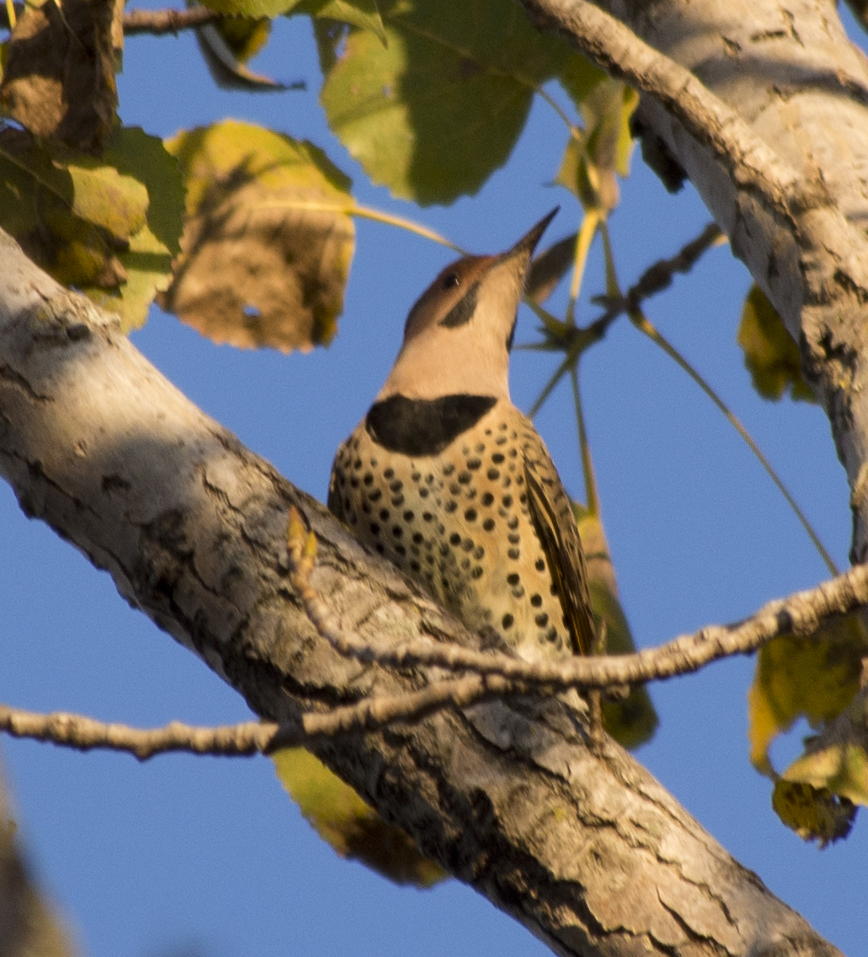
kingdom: Animalia
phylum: Chordata
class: Aves
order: Piciformes
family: Picidae
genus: Colaptes
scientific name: Colaptes auratus
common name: Northern flicker
